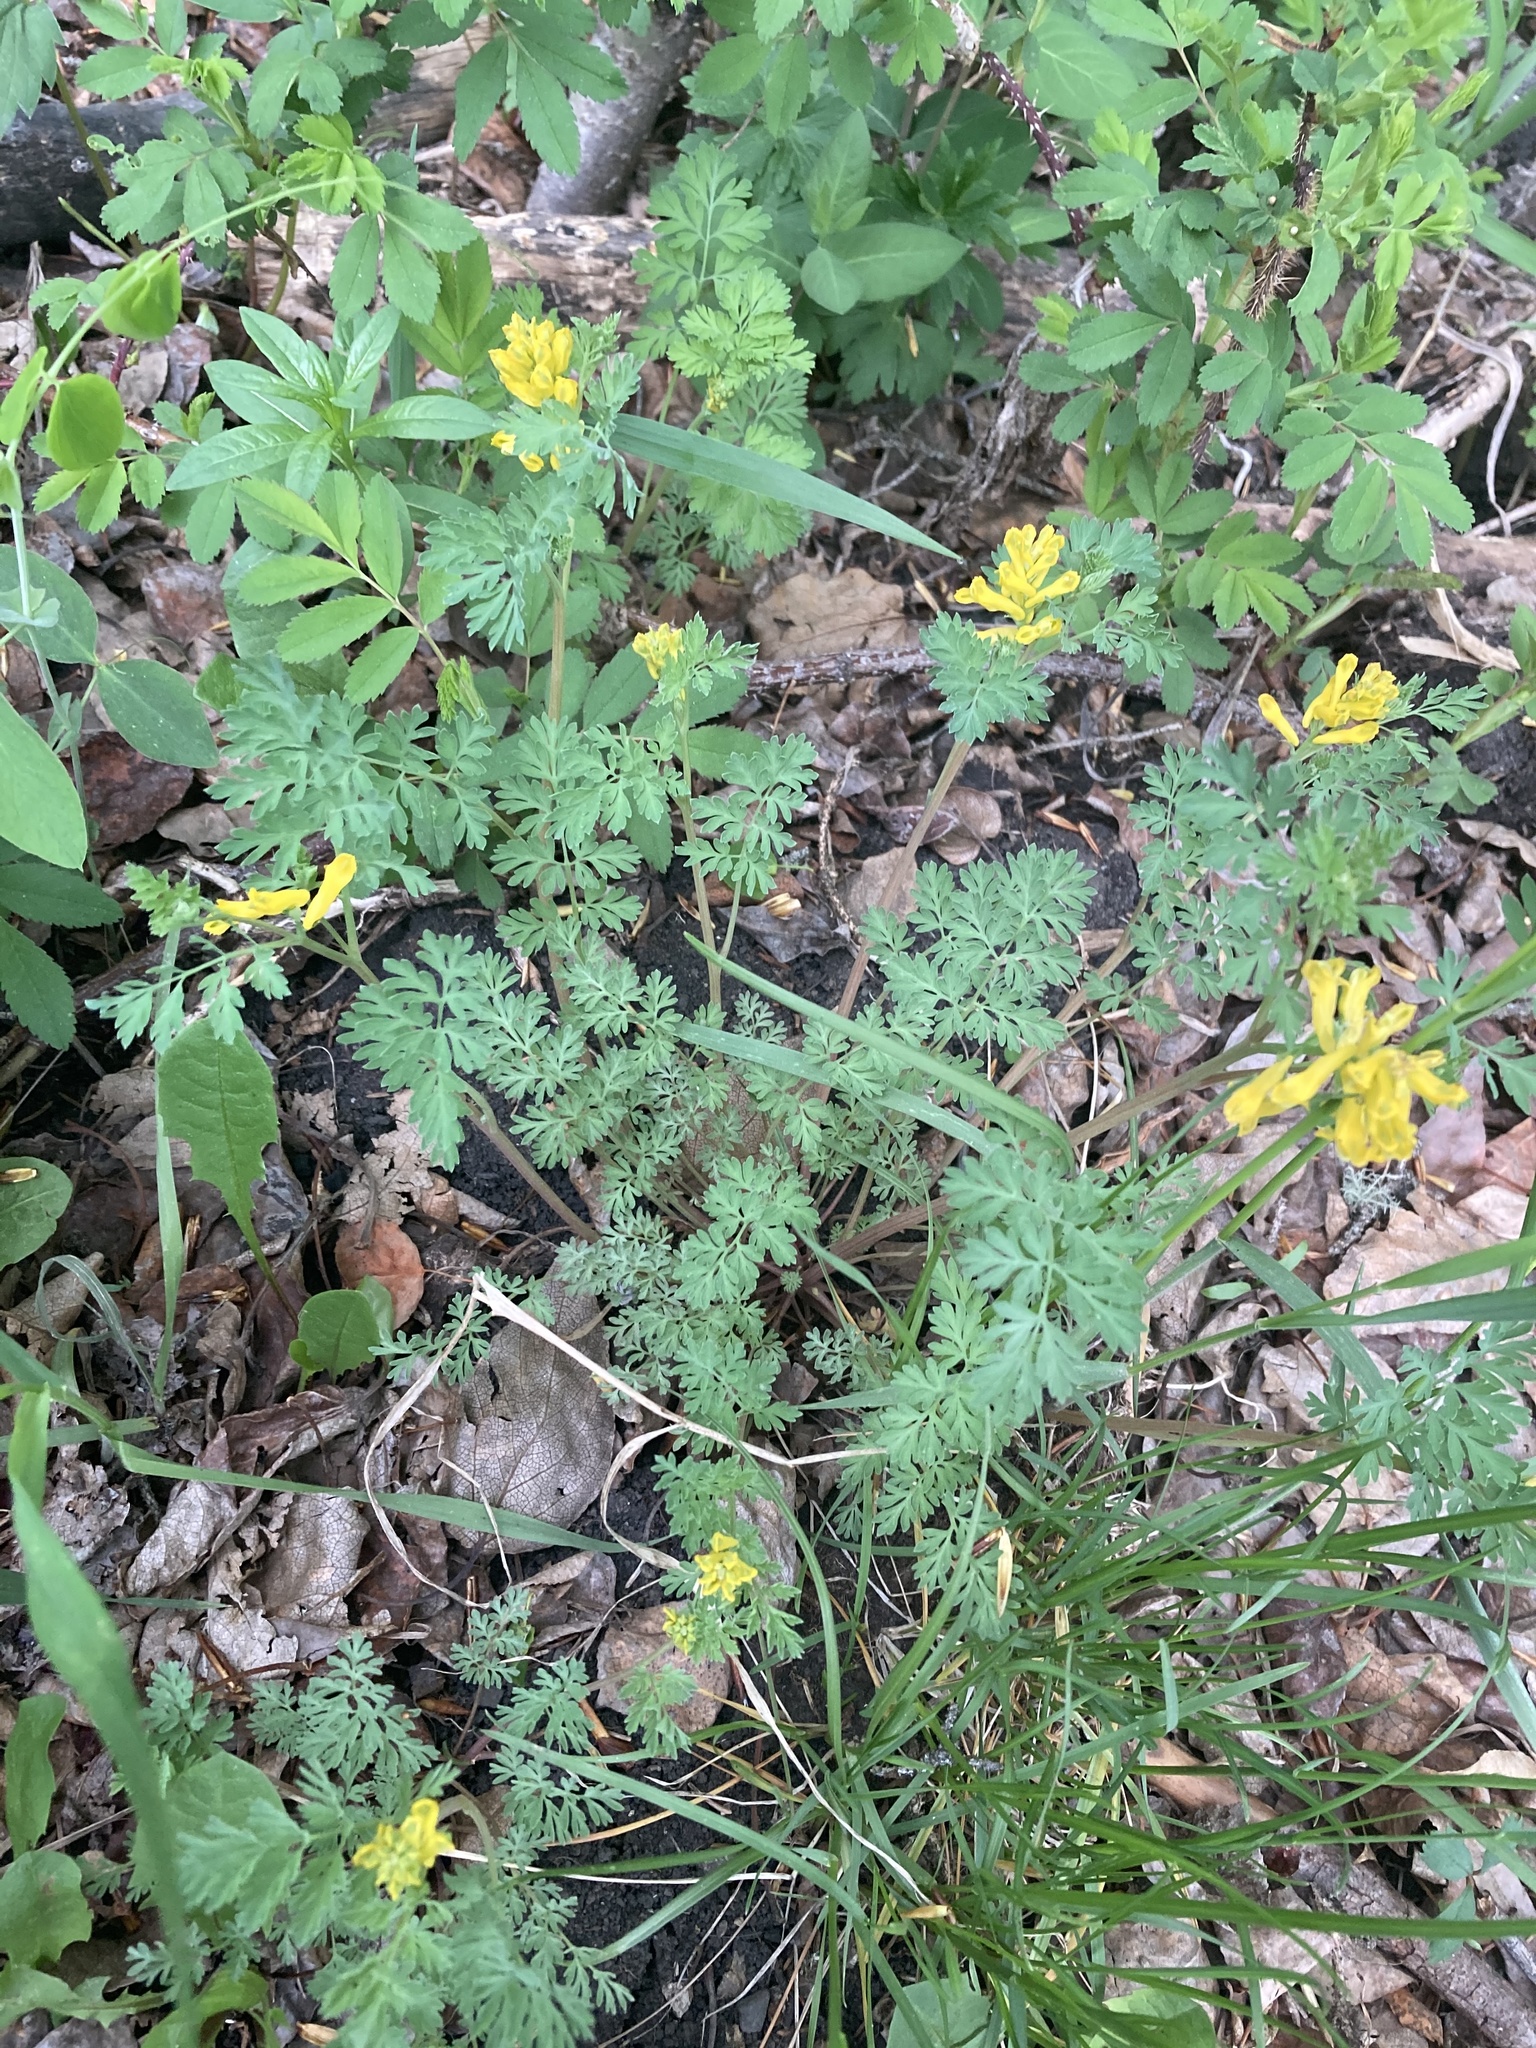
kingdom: Plantae
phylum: Tracheophyta
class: Magnoliopsida
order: Ranunculales
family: Papaveraceae
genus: Corydalis
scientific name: Corydalis aurea
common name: Golden corydalis
